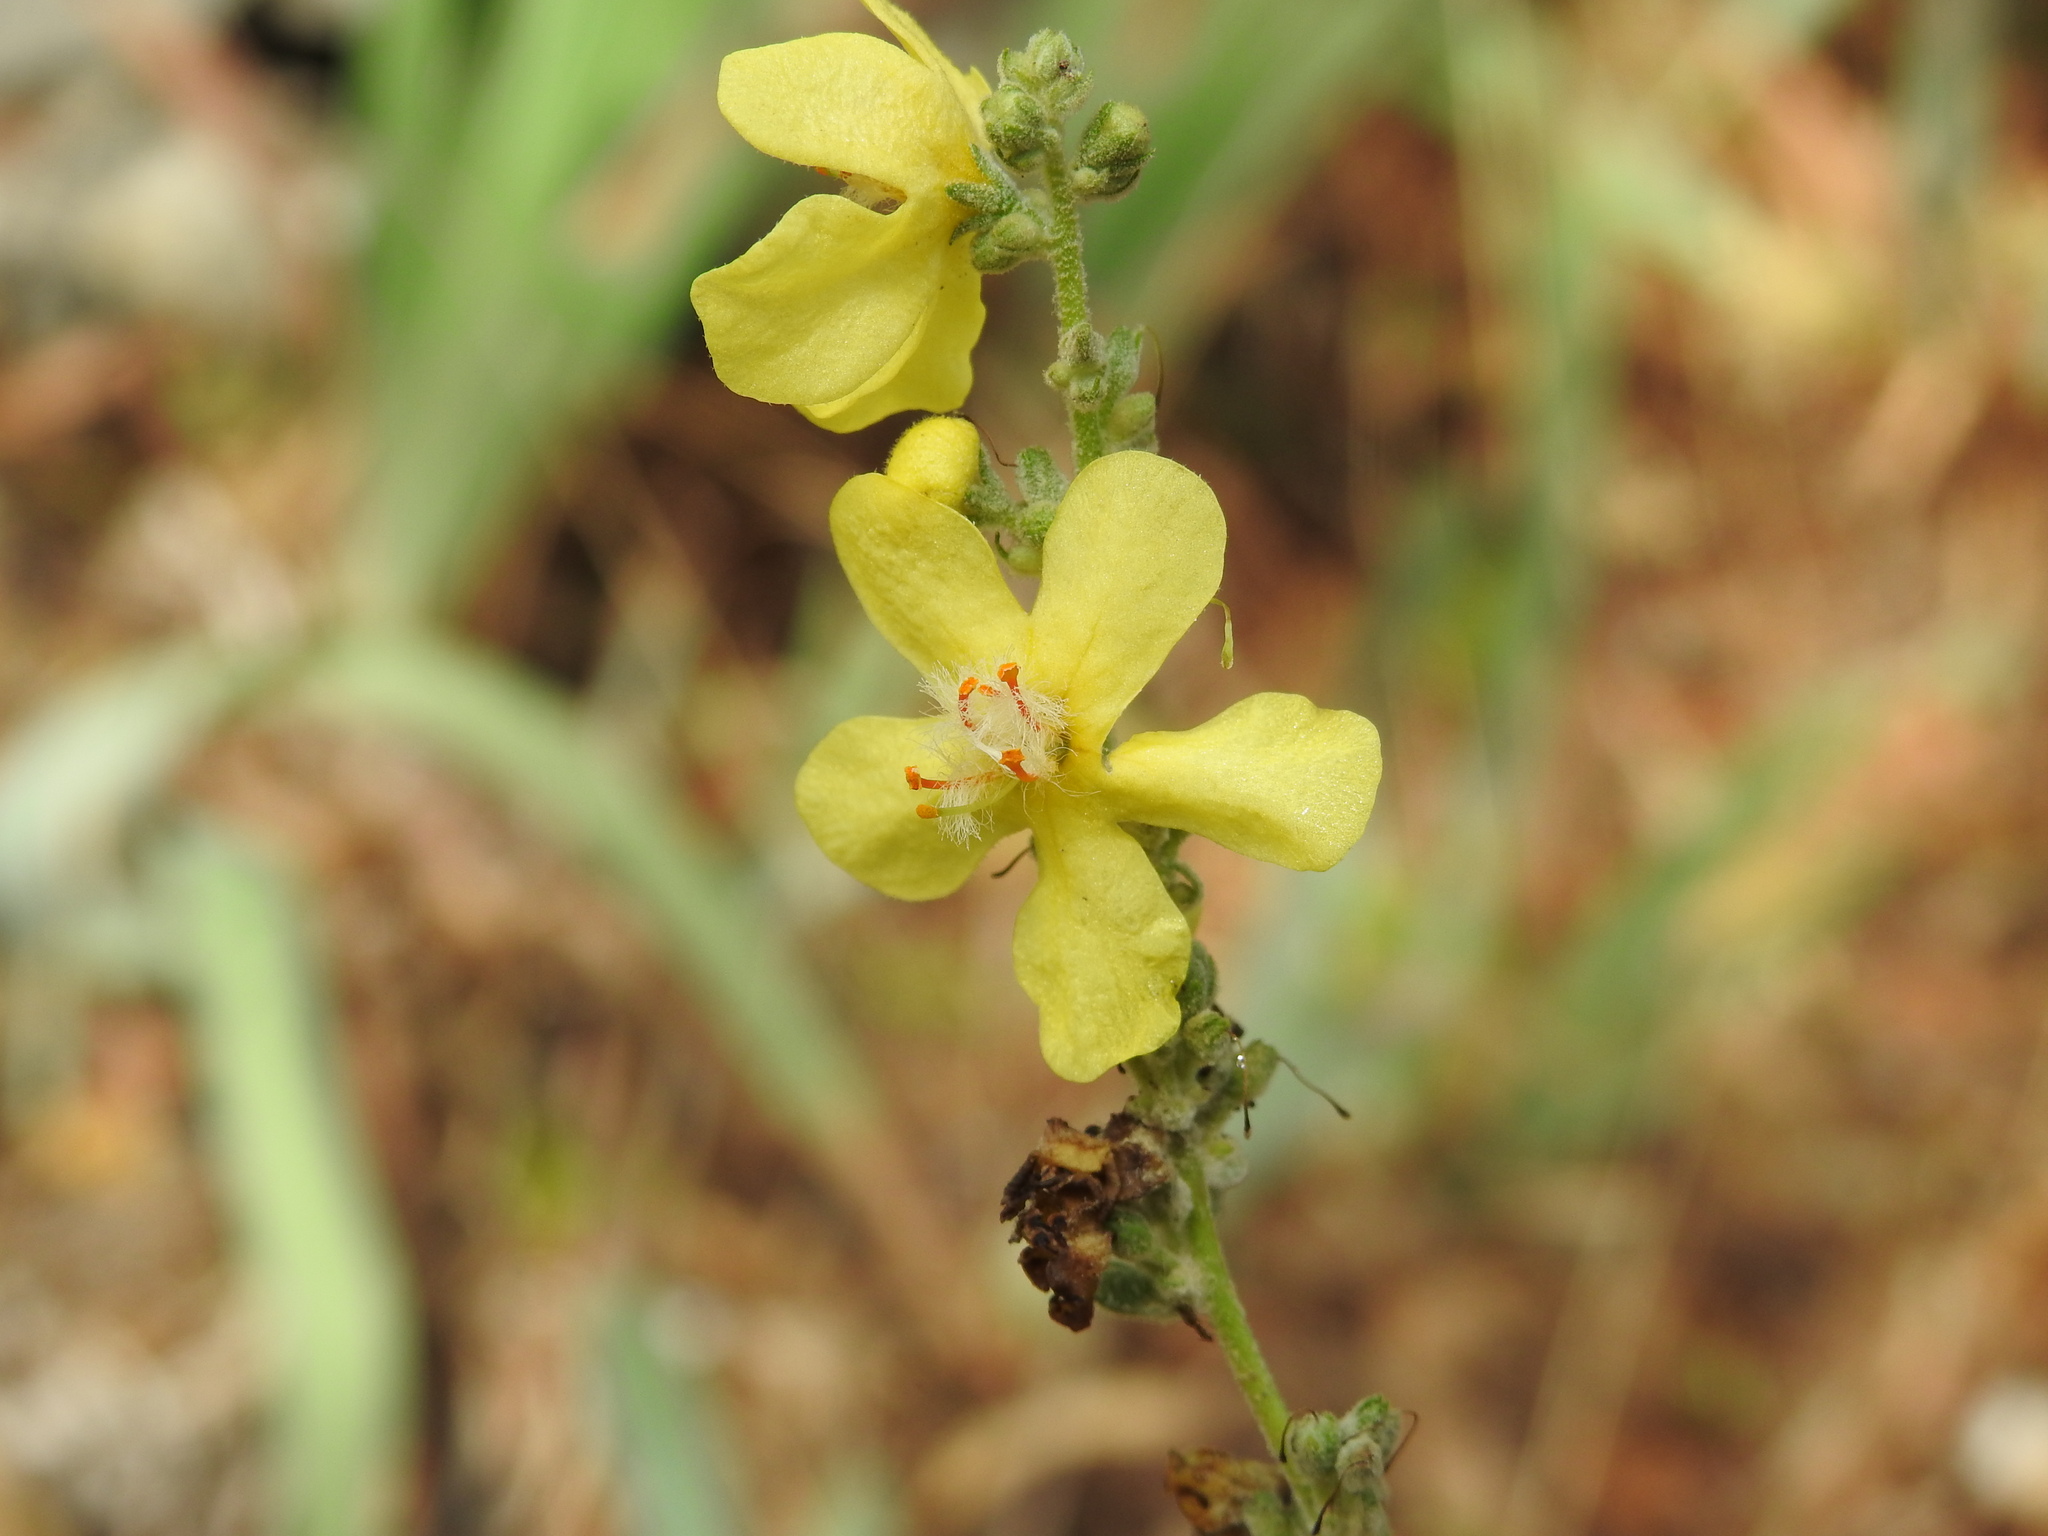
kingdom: Plantae
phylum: Tracheophyta
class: Magnoliopsida
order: Lamiales
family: Scrophulariaceae
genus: Verbascum
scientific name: Verbascum pulverulentum
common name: Broad-leaf mullein
